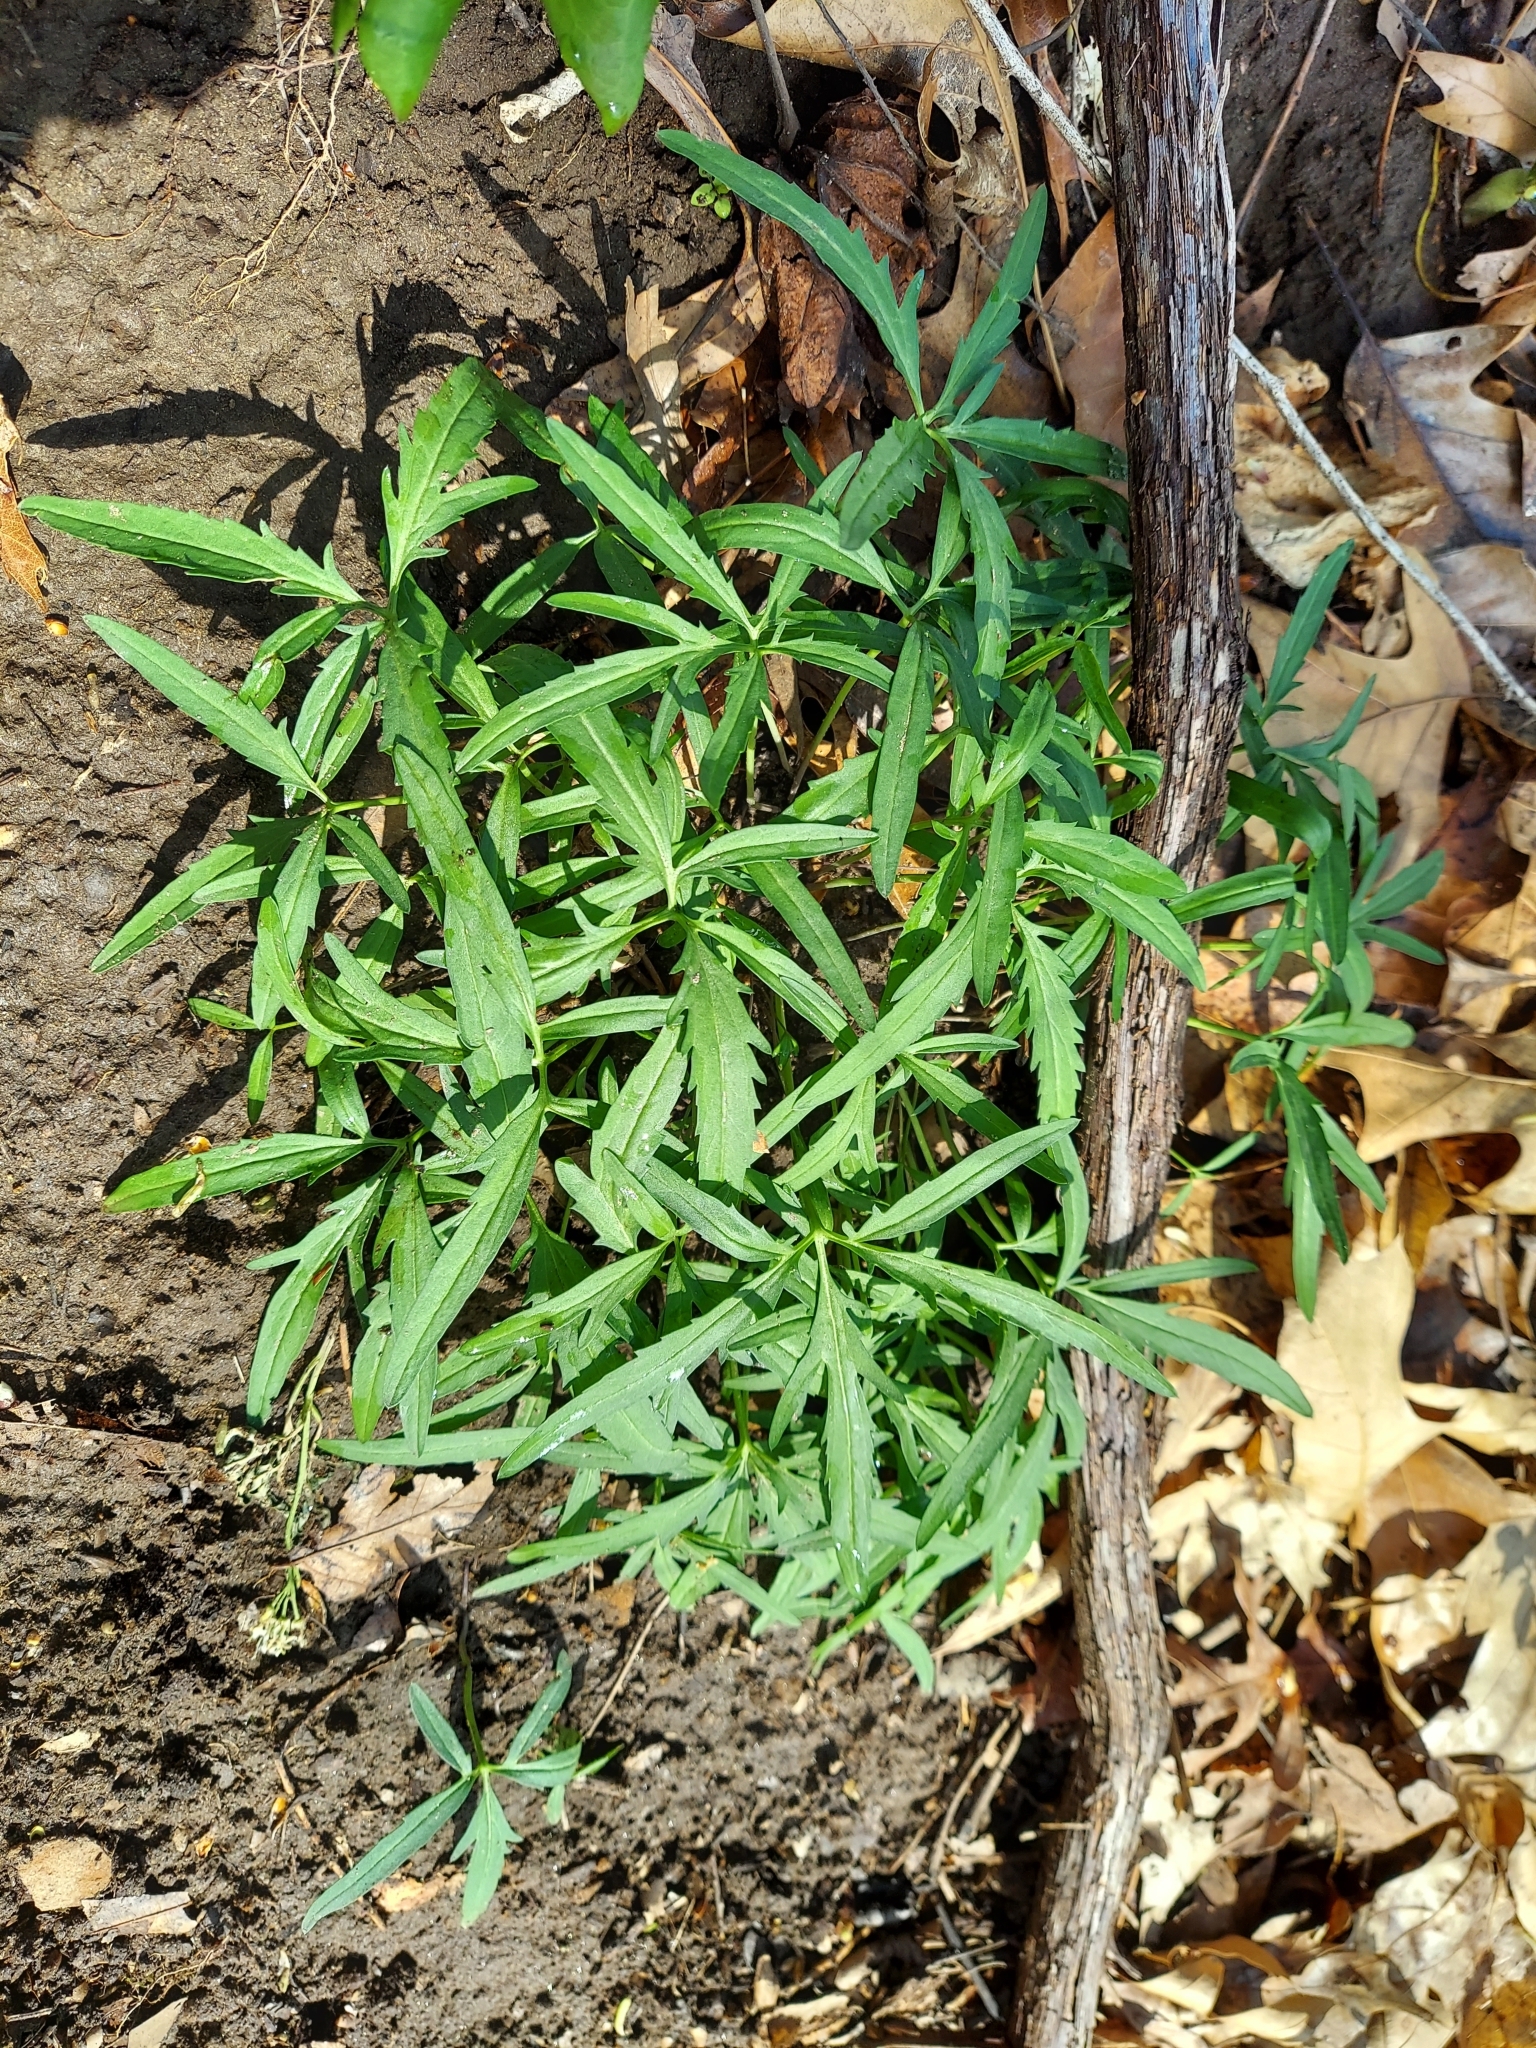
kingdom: Plantae
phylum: Tracheophyta
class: Magnoliopsida
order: Brassicales
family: Brassicaceae
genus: Cardamine
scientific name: Cardamine concatenata
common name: Cut-leaf toothcup
